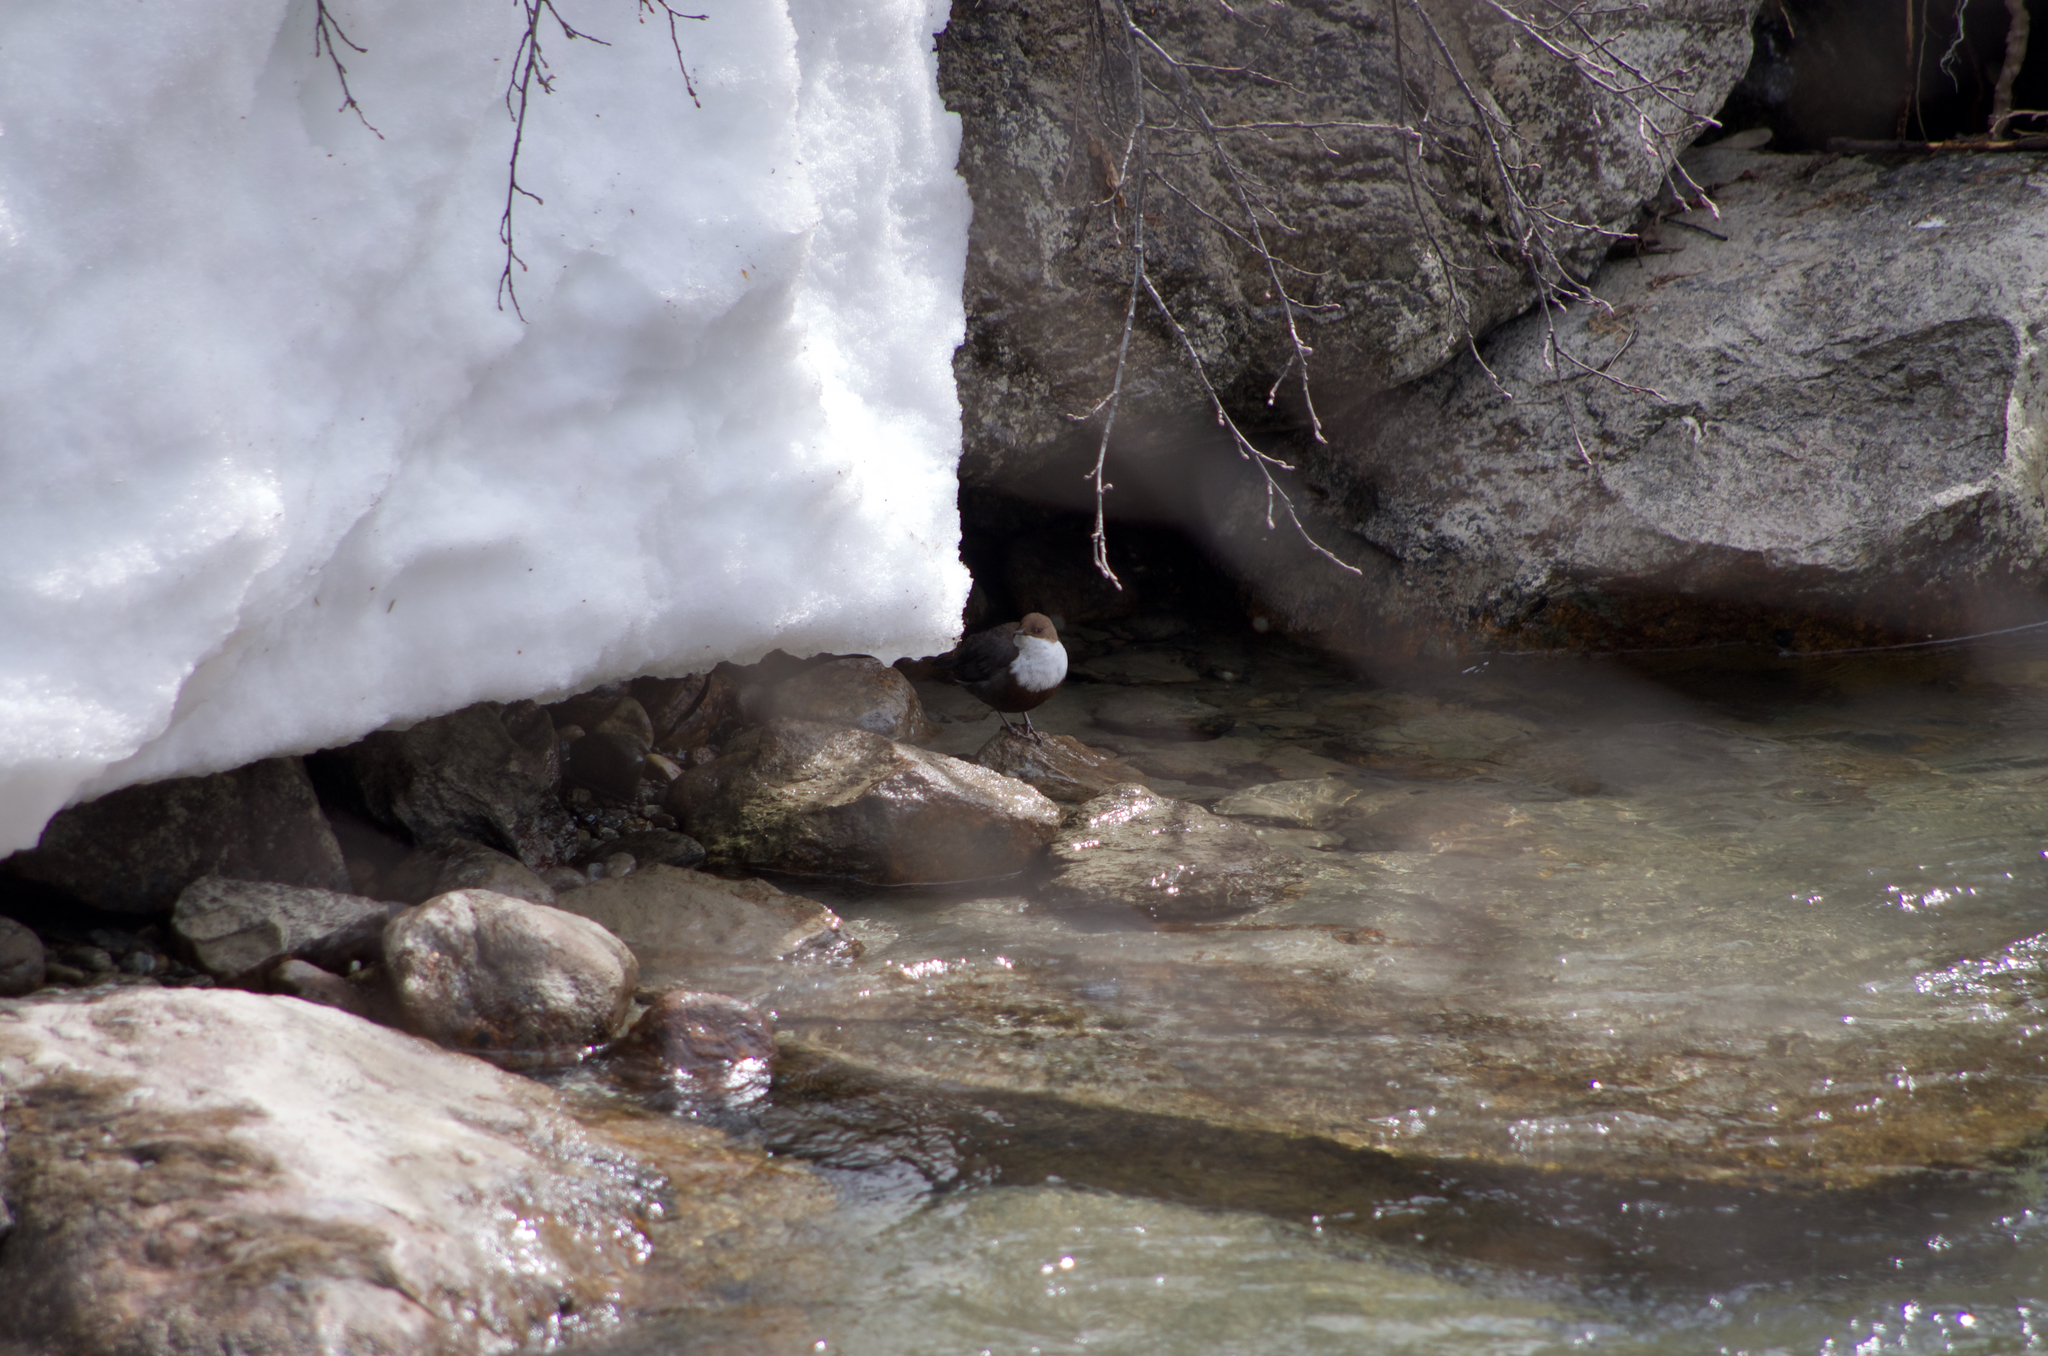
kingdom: Animalia
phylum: Chordata
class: Aves
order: Passeriformes
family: Cinclidae
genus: Cinclus
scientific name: Cinclus cinclus
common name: White-throated dipper
